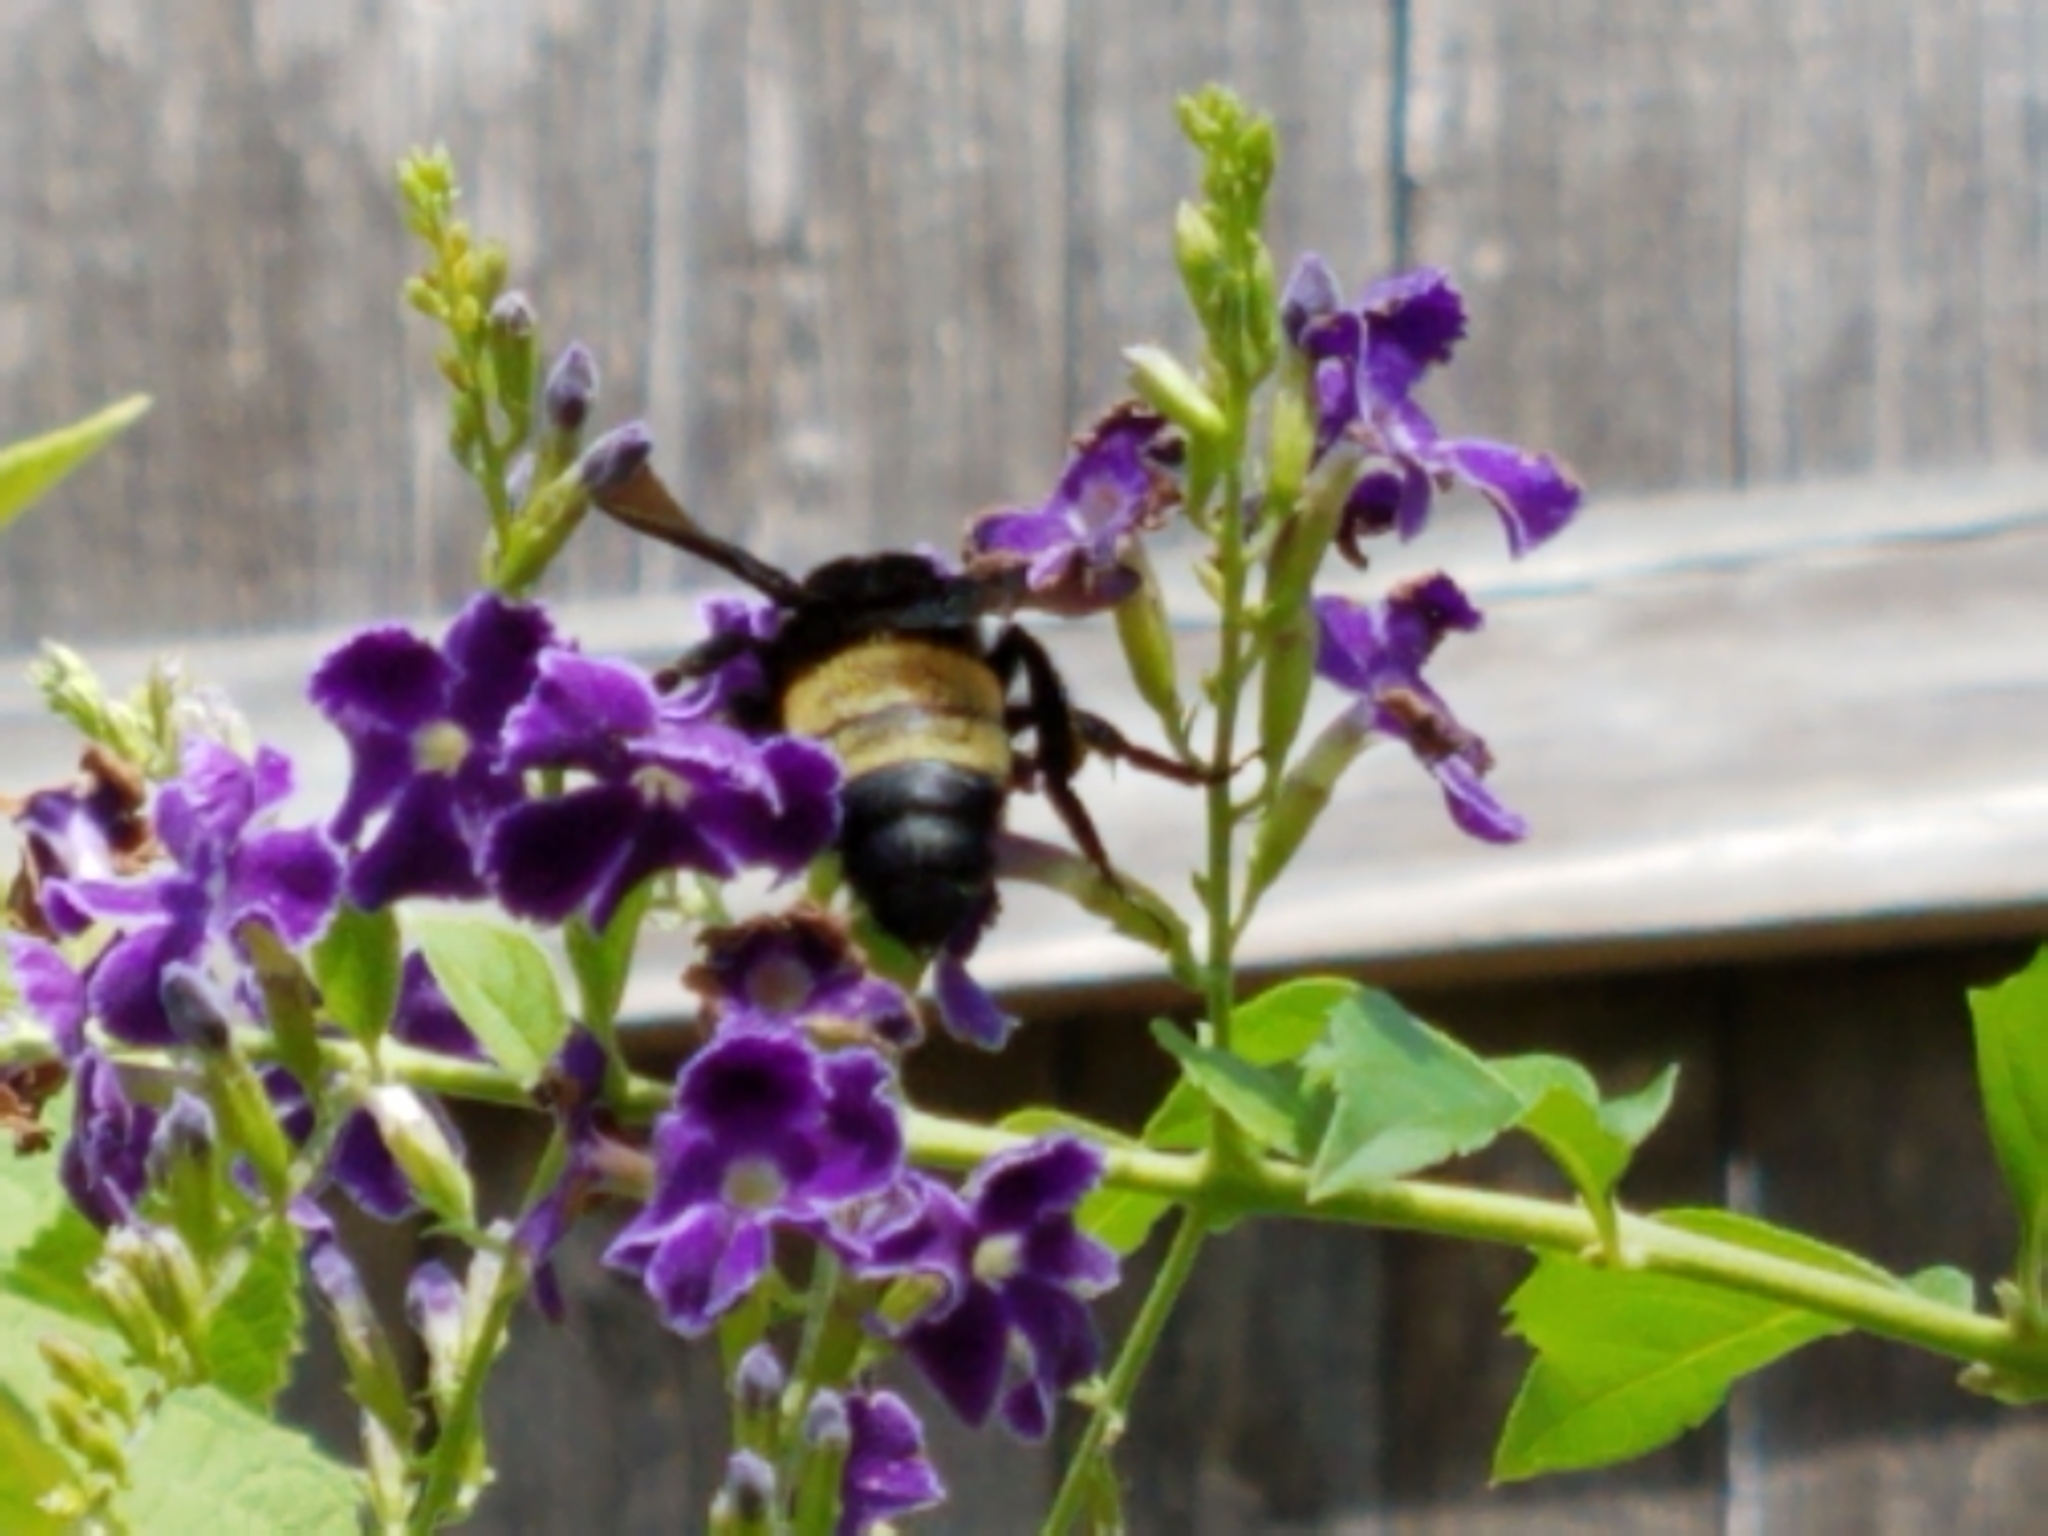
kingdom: Animalia
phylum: Arthropoda
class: Insecta
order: Hymenoptera
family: Apidae
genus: Bombus
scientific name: Bombus pensylvanicus
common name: Bumble bee
